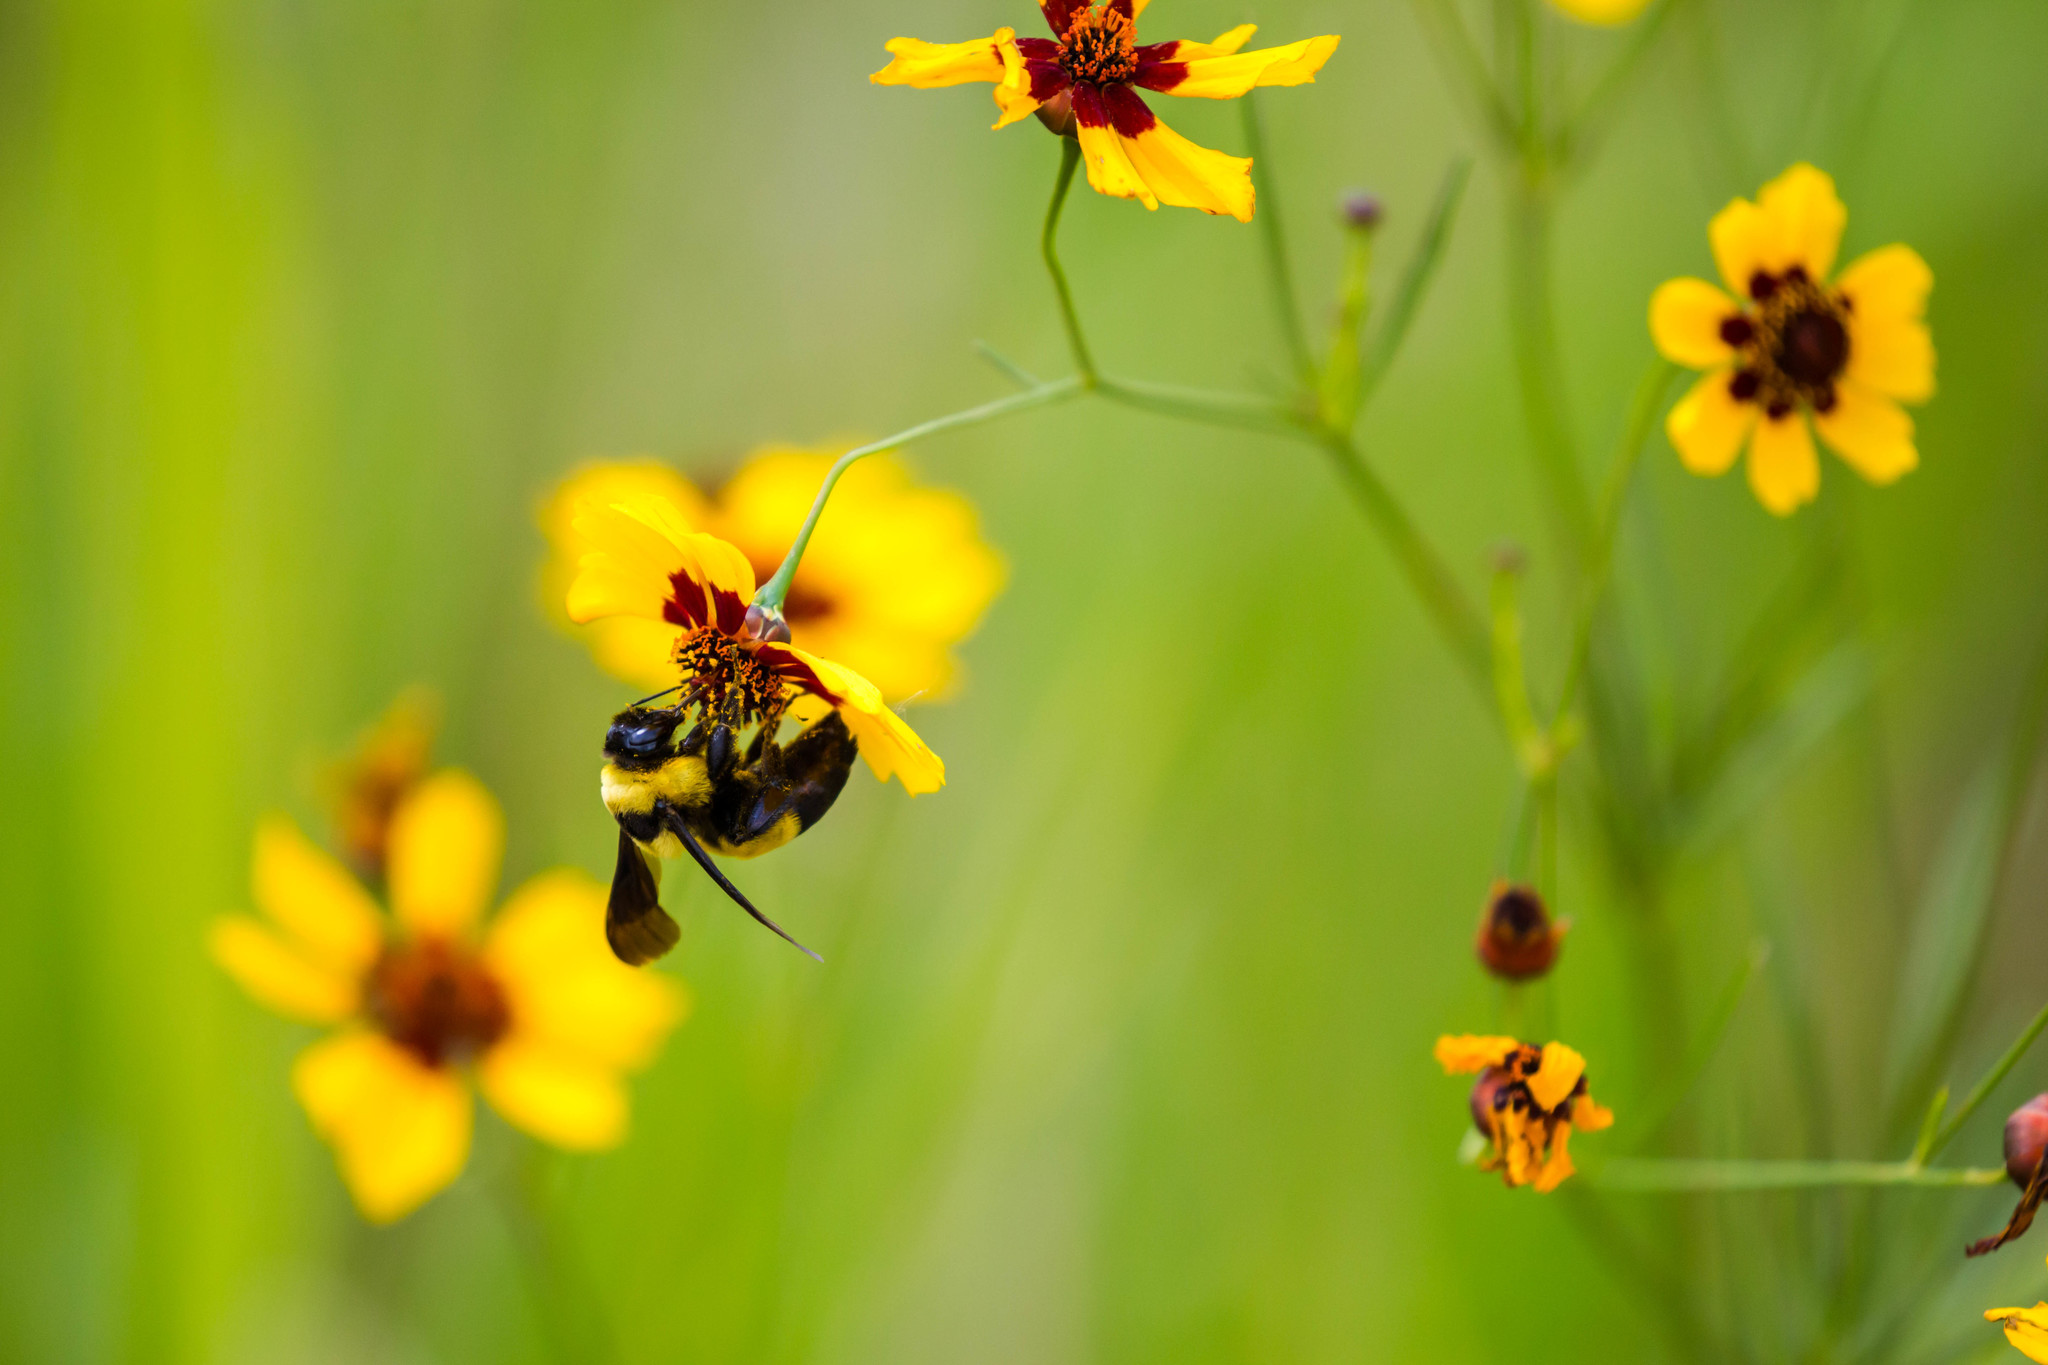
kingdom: Animalia
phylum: Arthropoda
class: Insecta
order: Hymenoptera
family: Apidae
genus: Bombus
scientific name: Bombus fraternus
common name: Southern plains bumble bee
